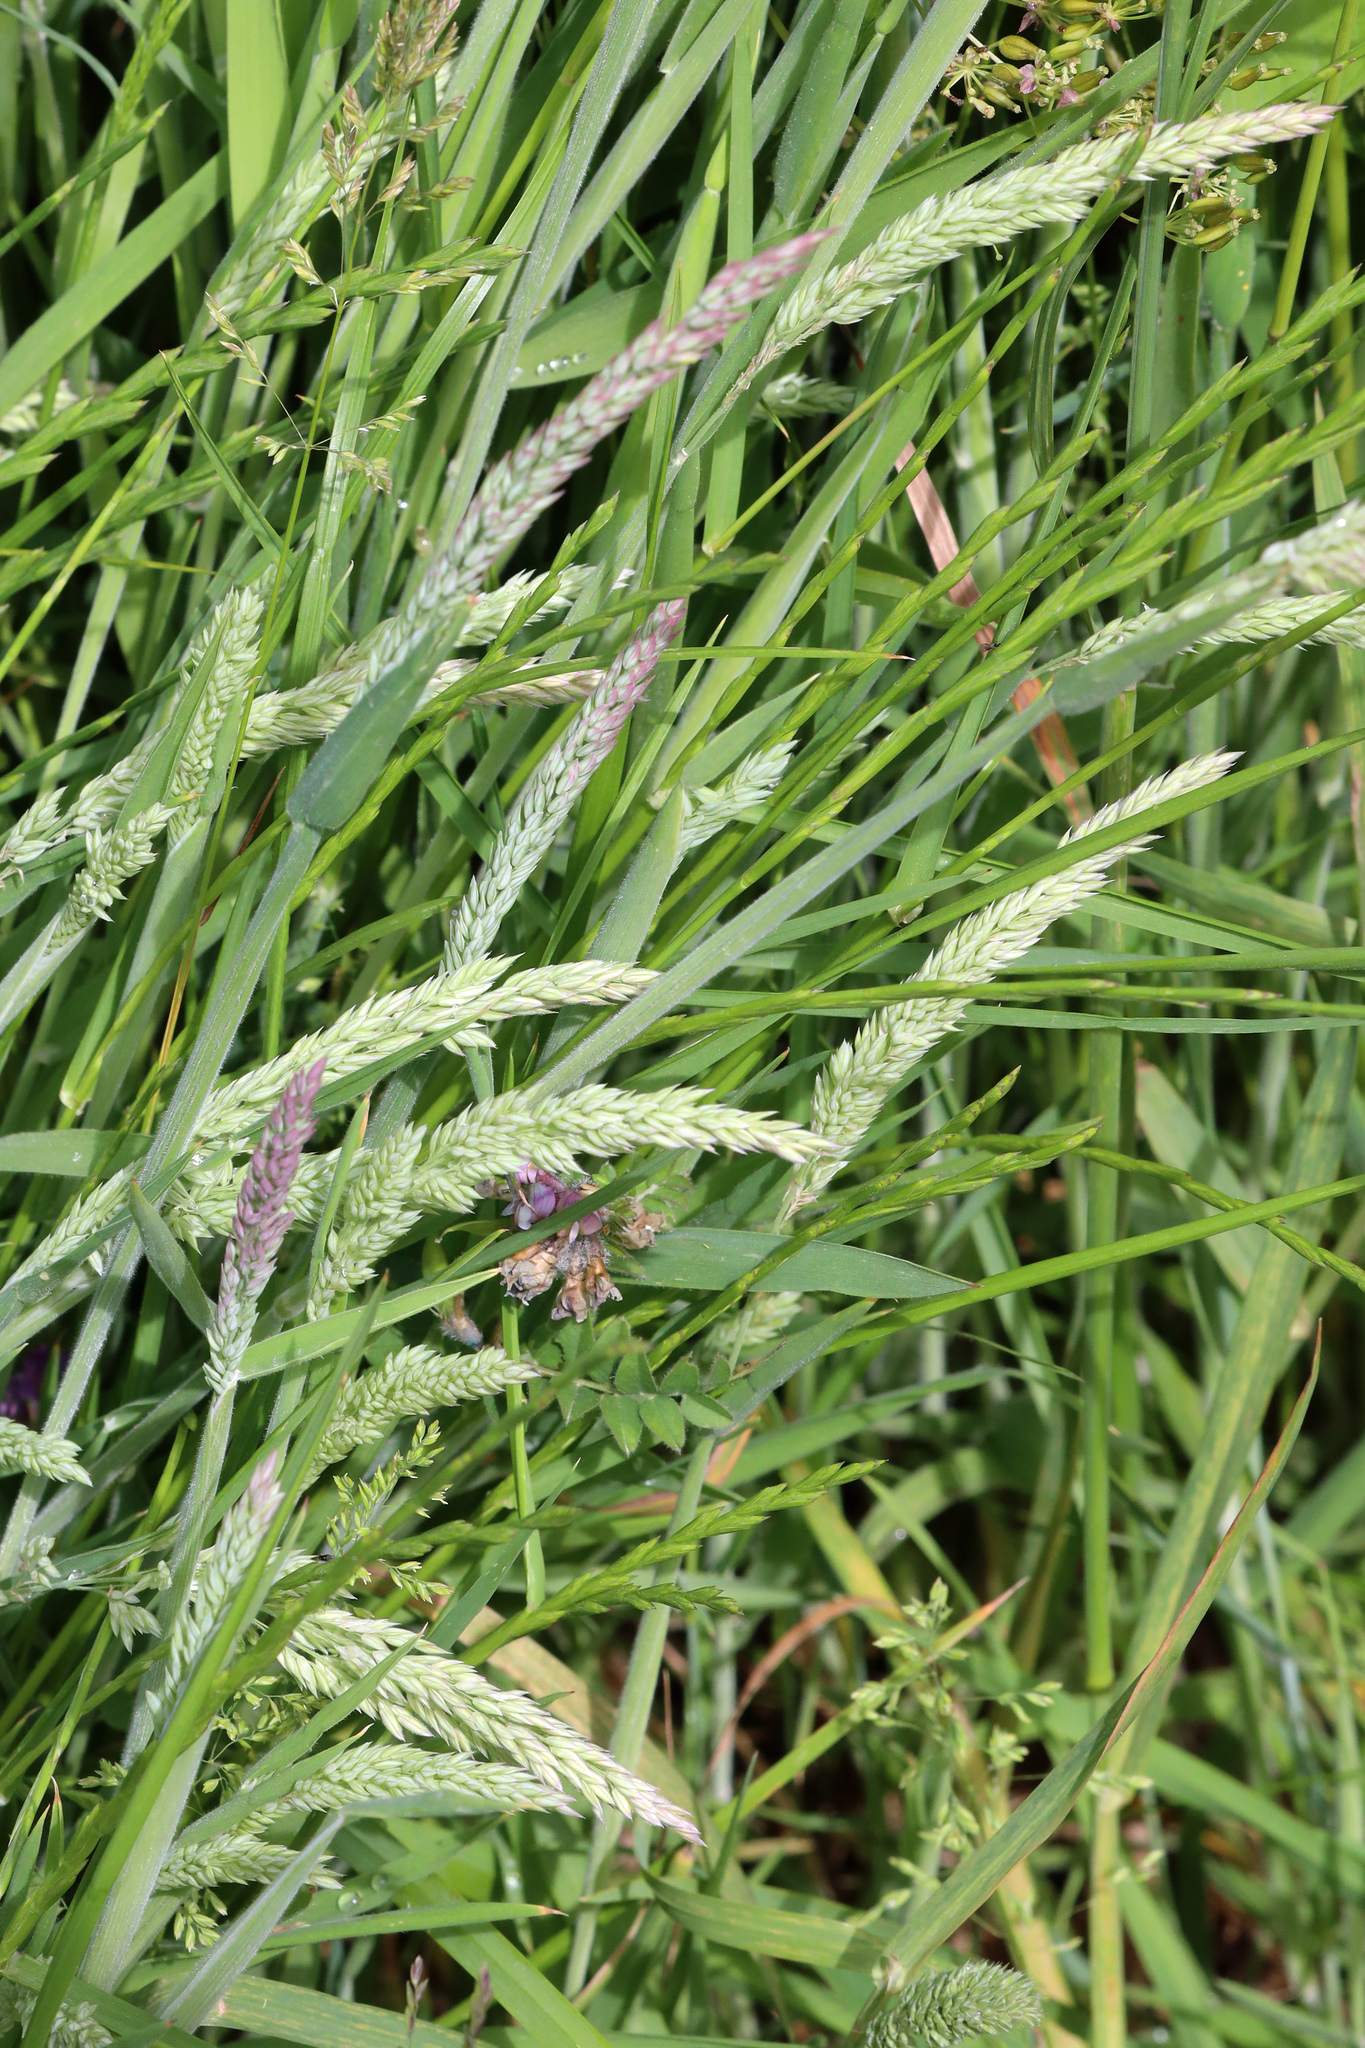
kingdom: Plantae
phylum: Tracheophyta
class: Liliopsida
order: Poales
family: Poaceae
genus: Holcus
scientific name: Holcus lanatus
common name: Yorkshire-fog
